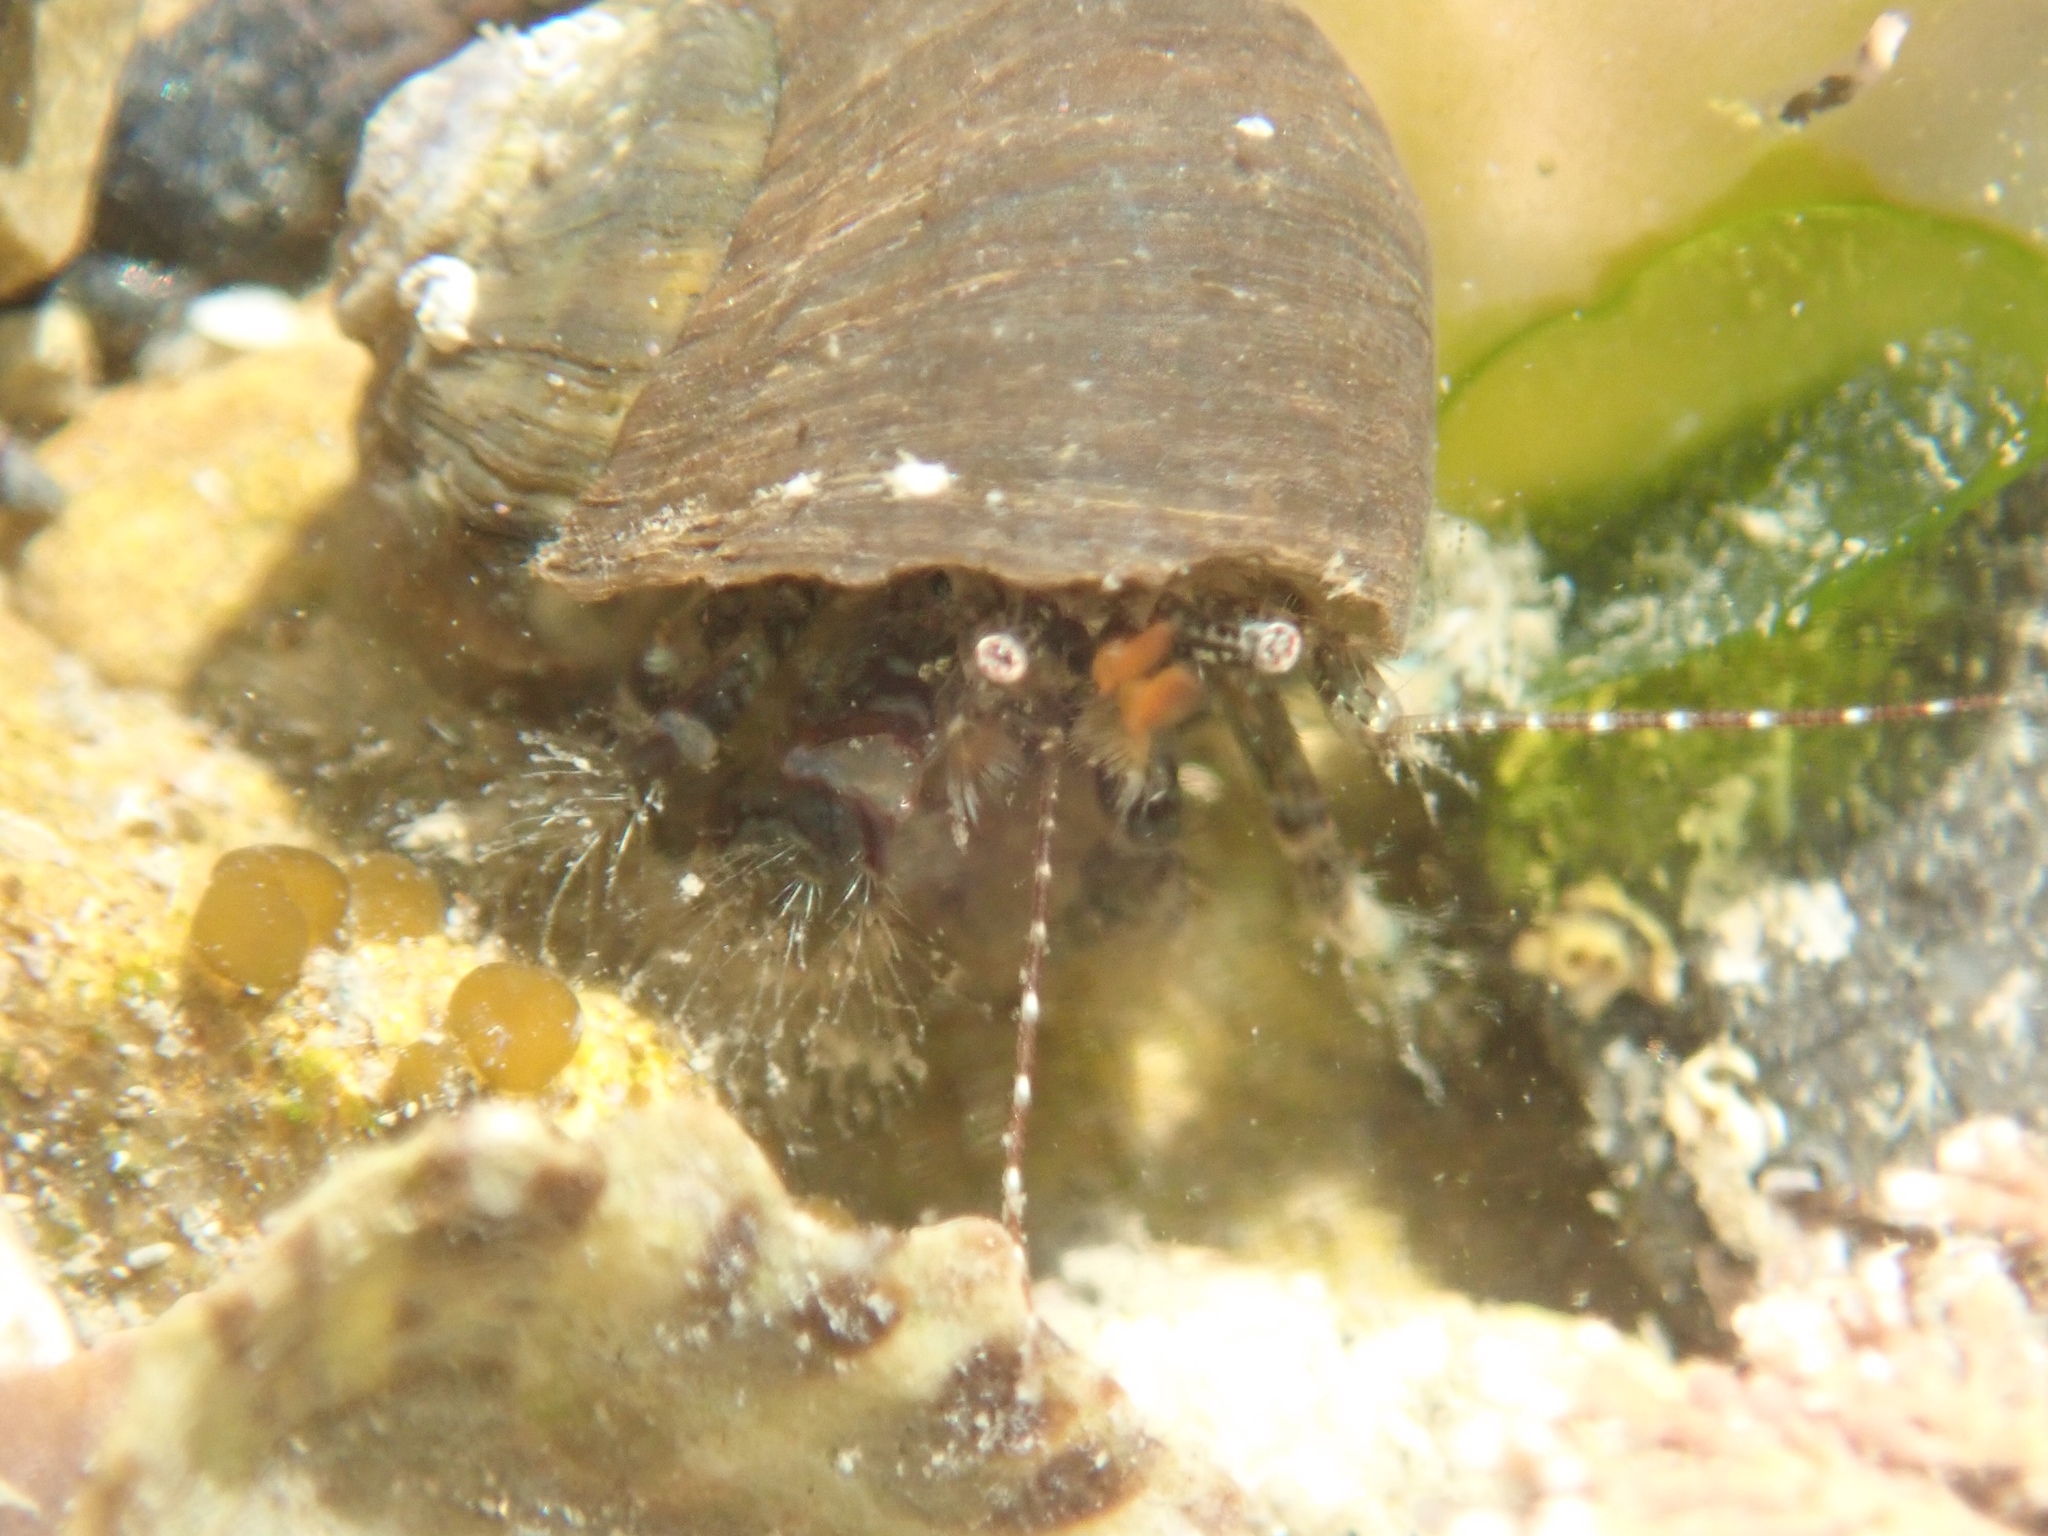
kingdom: Animalia
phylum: Arthropoda
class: Malacostraca
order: Decapoda
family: Paguridae
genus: Pagurus
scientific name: Pagurus traversi
